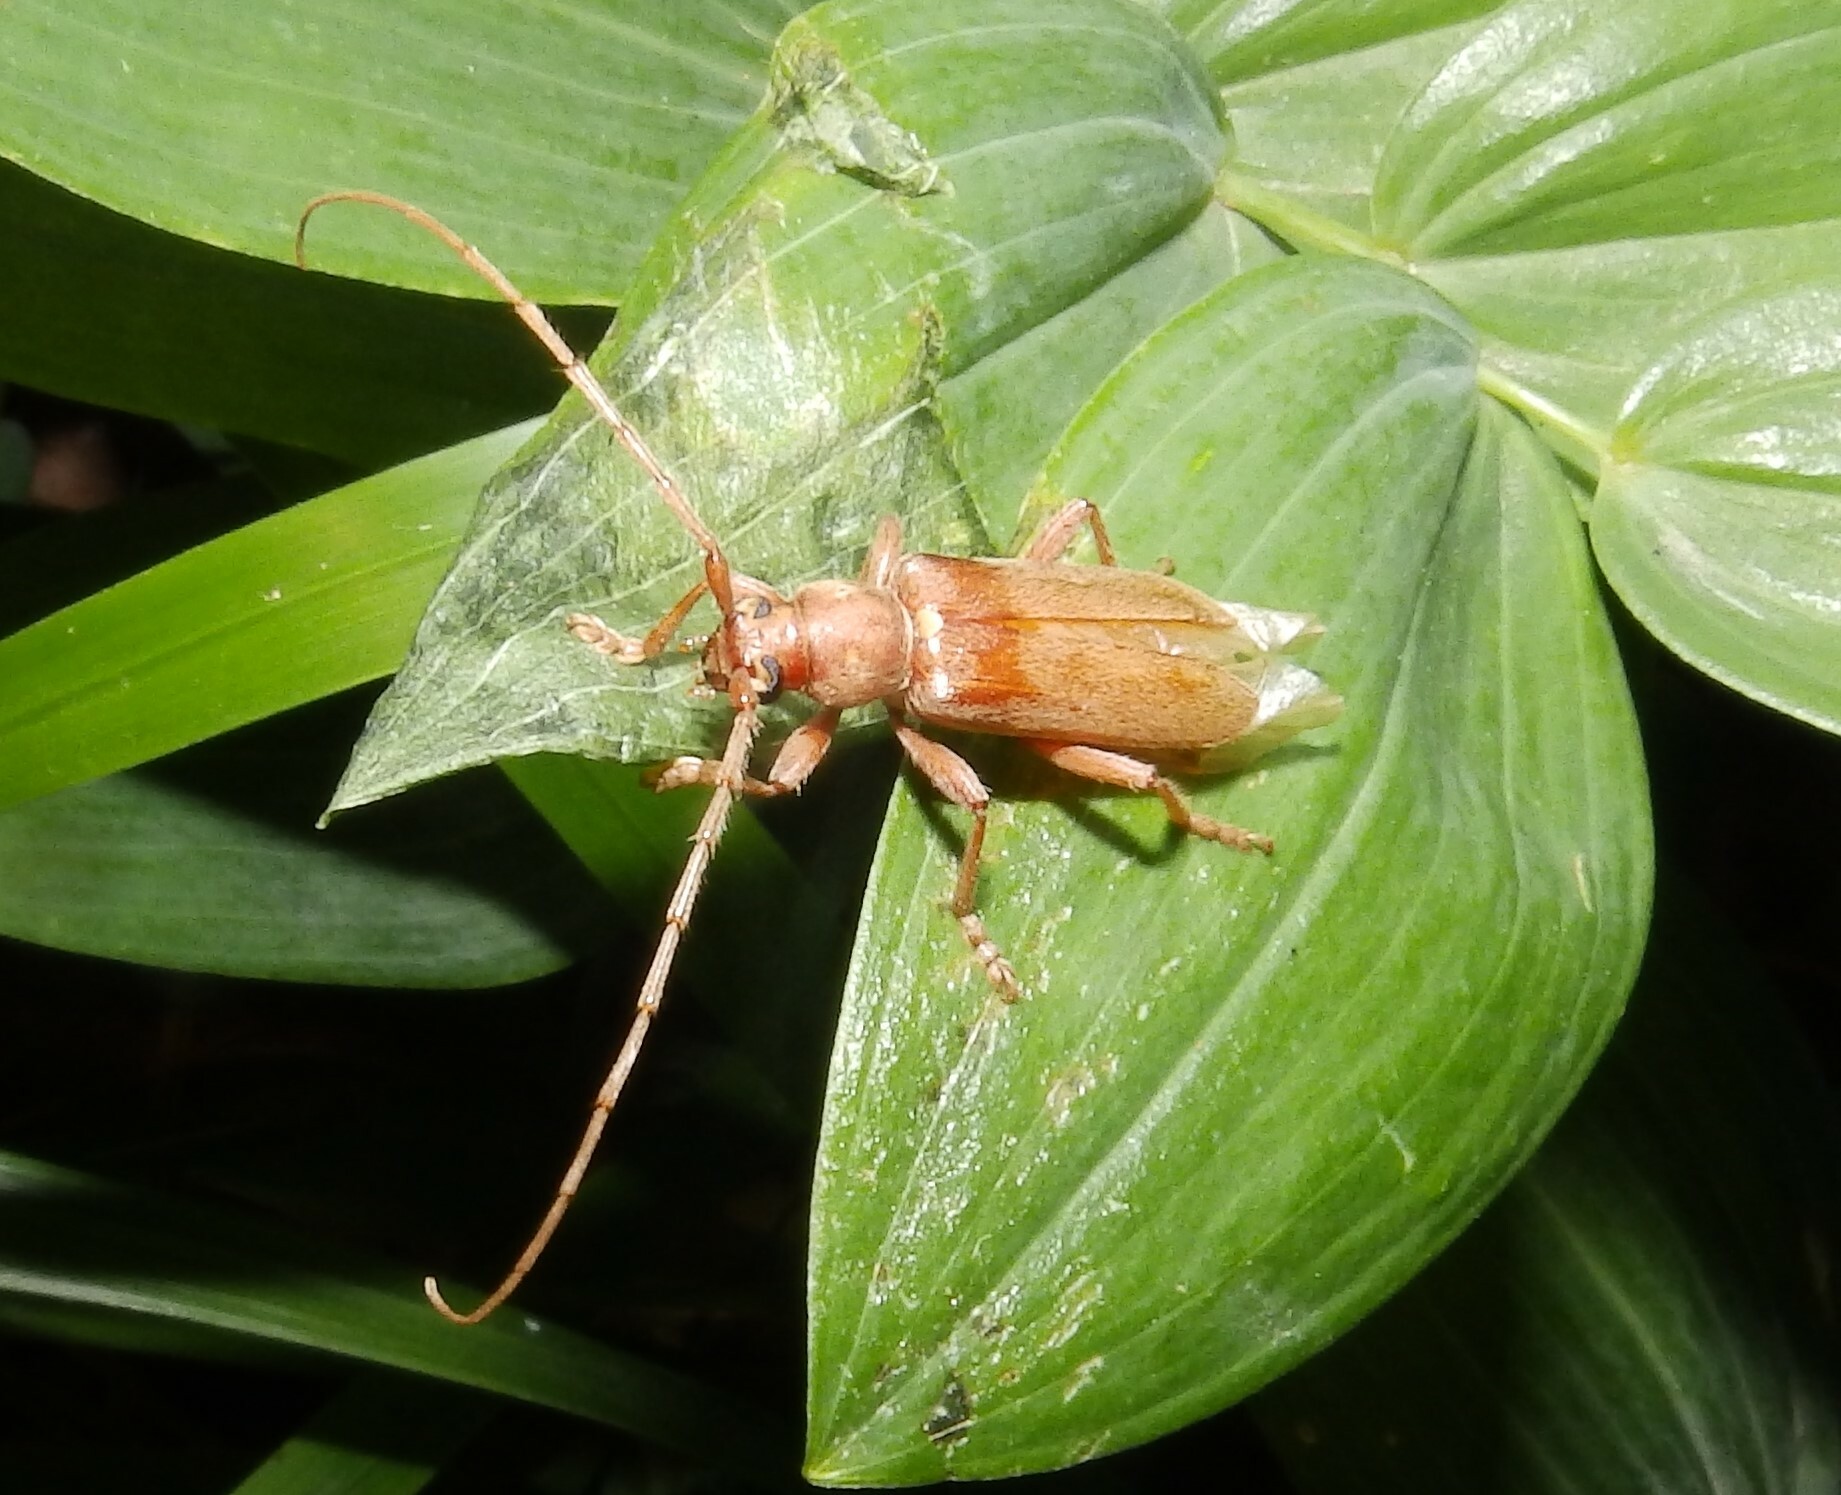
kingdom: Animalia
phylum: Arthropoda
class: Insecta
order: Coleoptera
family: Cerambycidae
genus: Hesperophanes
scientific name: Hesperophanes pubescens
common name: Longhorned wood-boring beetle
